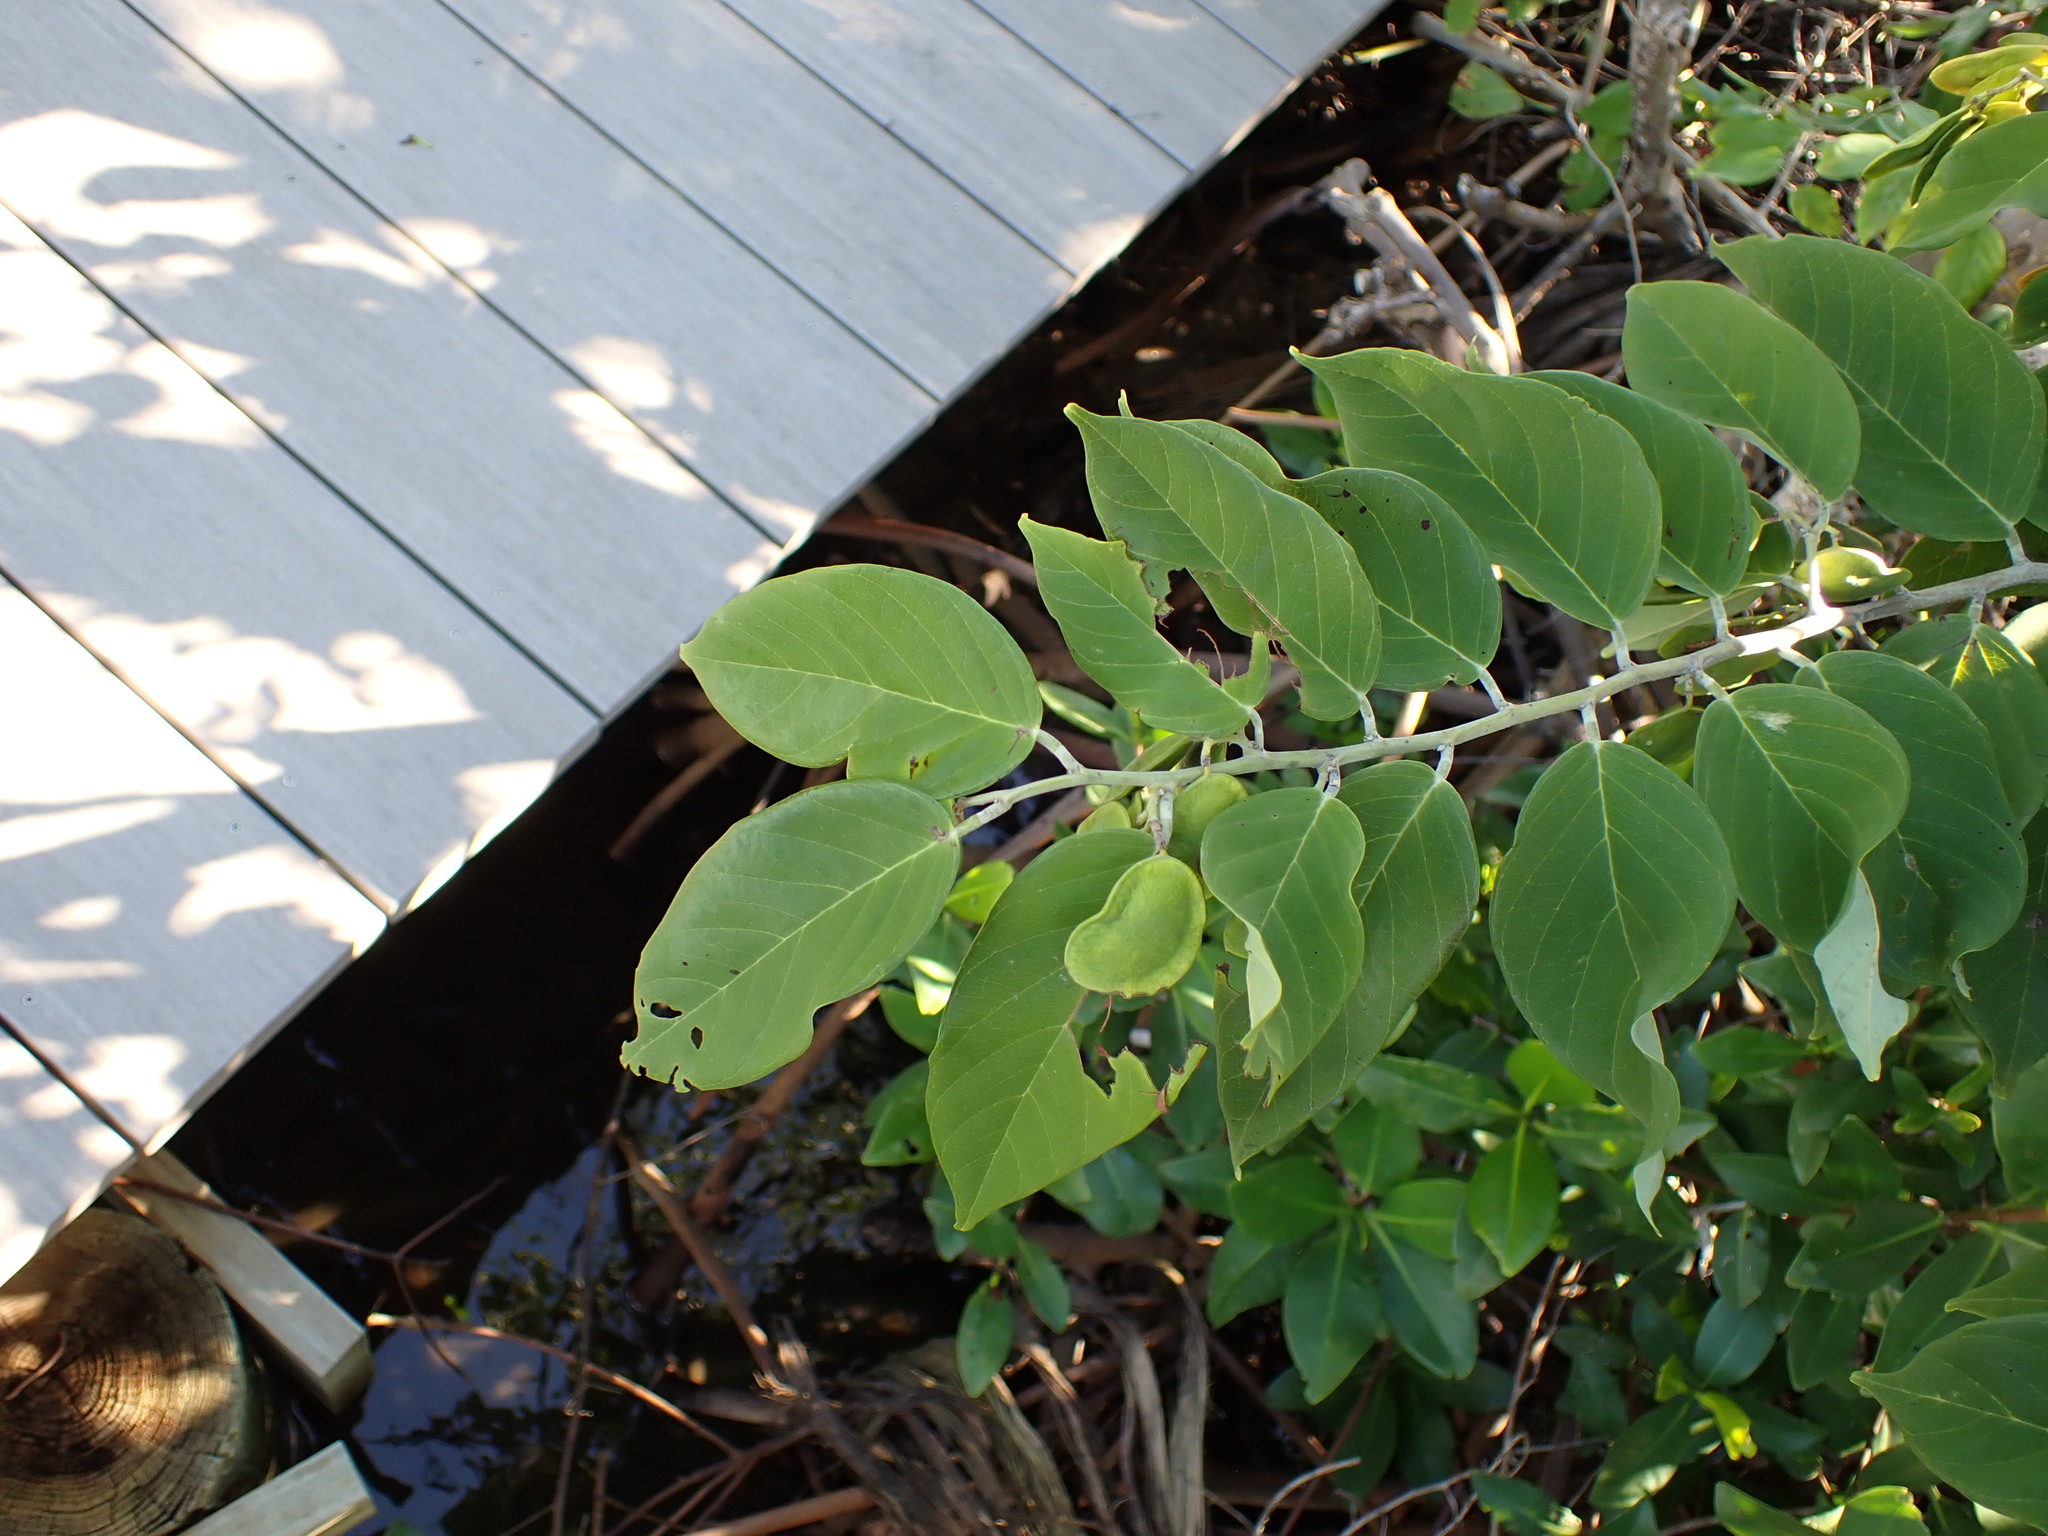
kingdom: Plantae
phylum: Tracheophyta
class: Magnoliopsida
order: Fabales
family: Fabaceae
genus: Dalbergia
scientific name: Dalbergia ecastaphyllum
